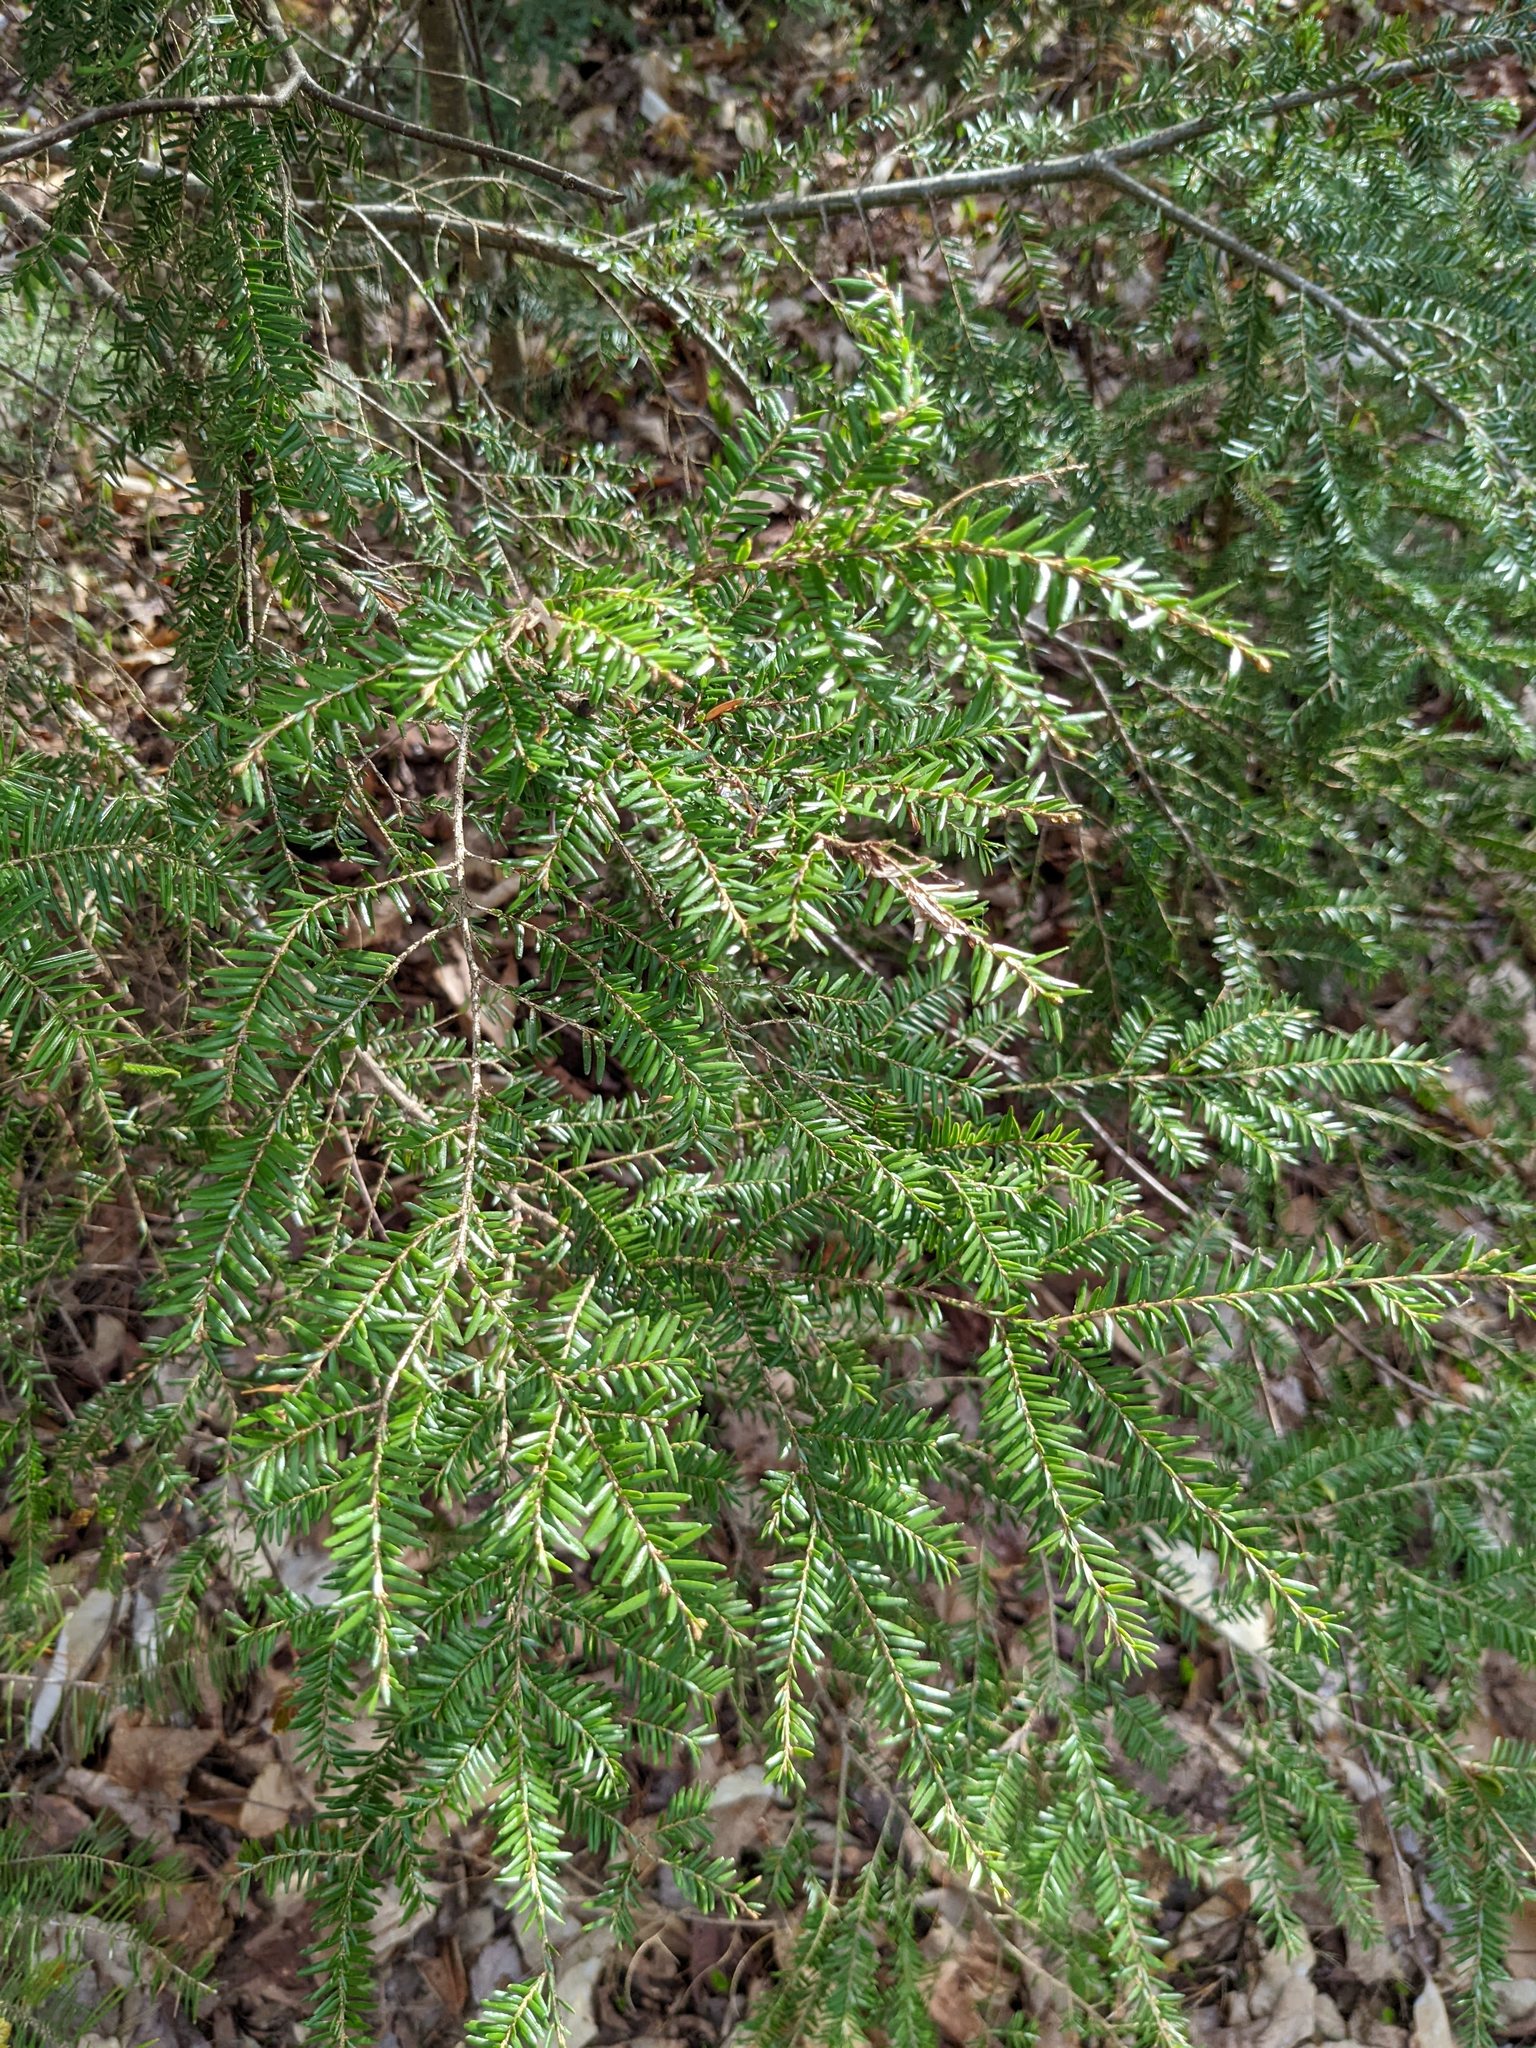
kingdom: Plantae
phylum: Tracheophyta
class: Pinopsida
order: Pinales
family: Pinaceae
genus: Tsuga
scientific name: Tsuga canadensis
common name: Eastern hemlock
